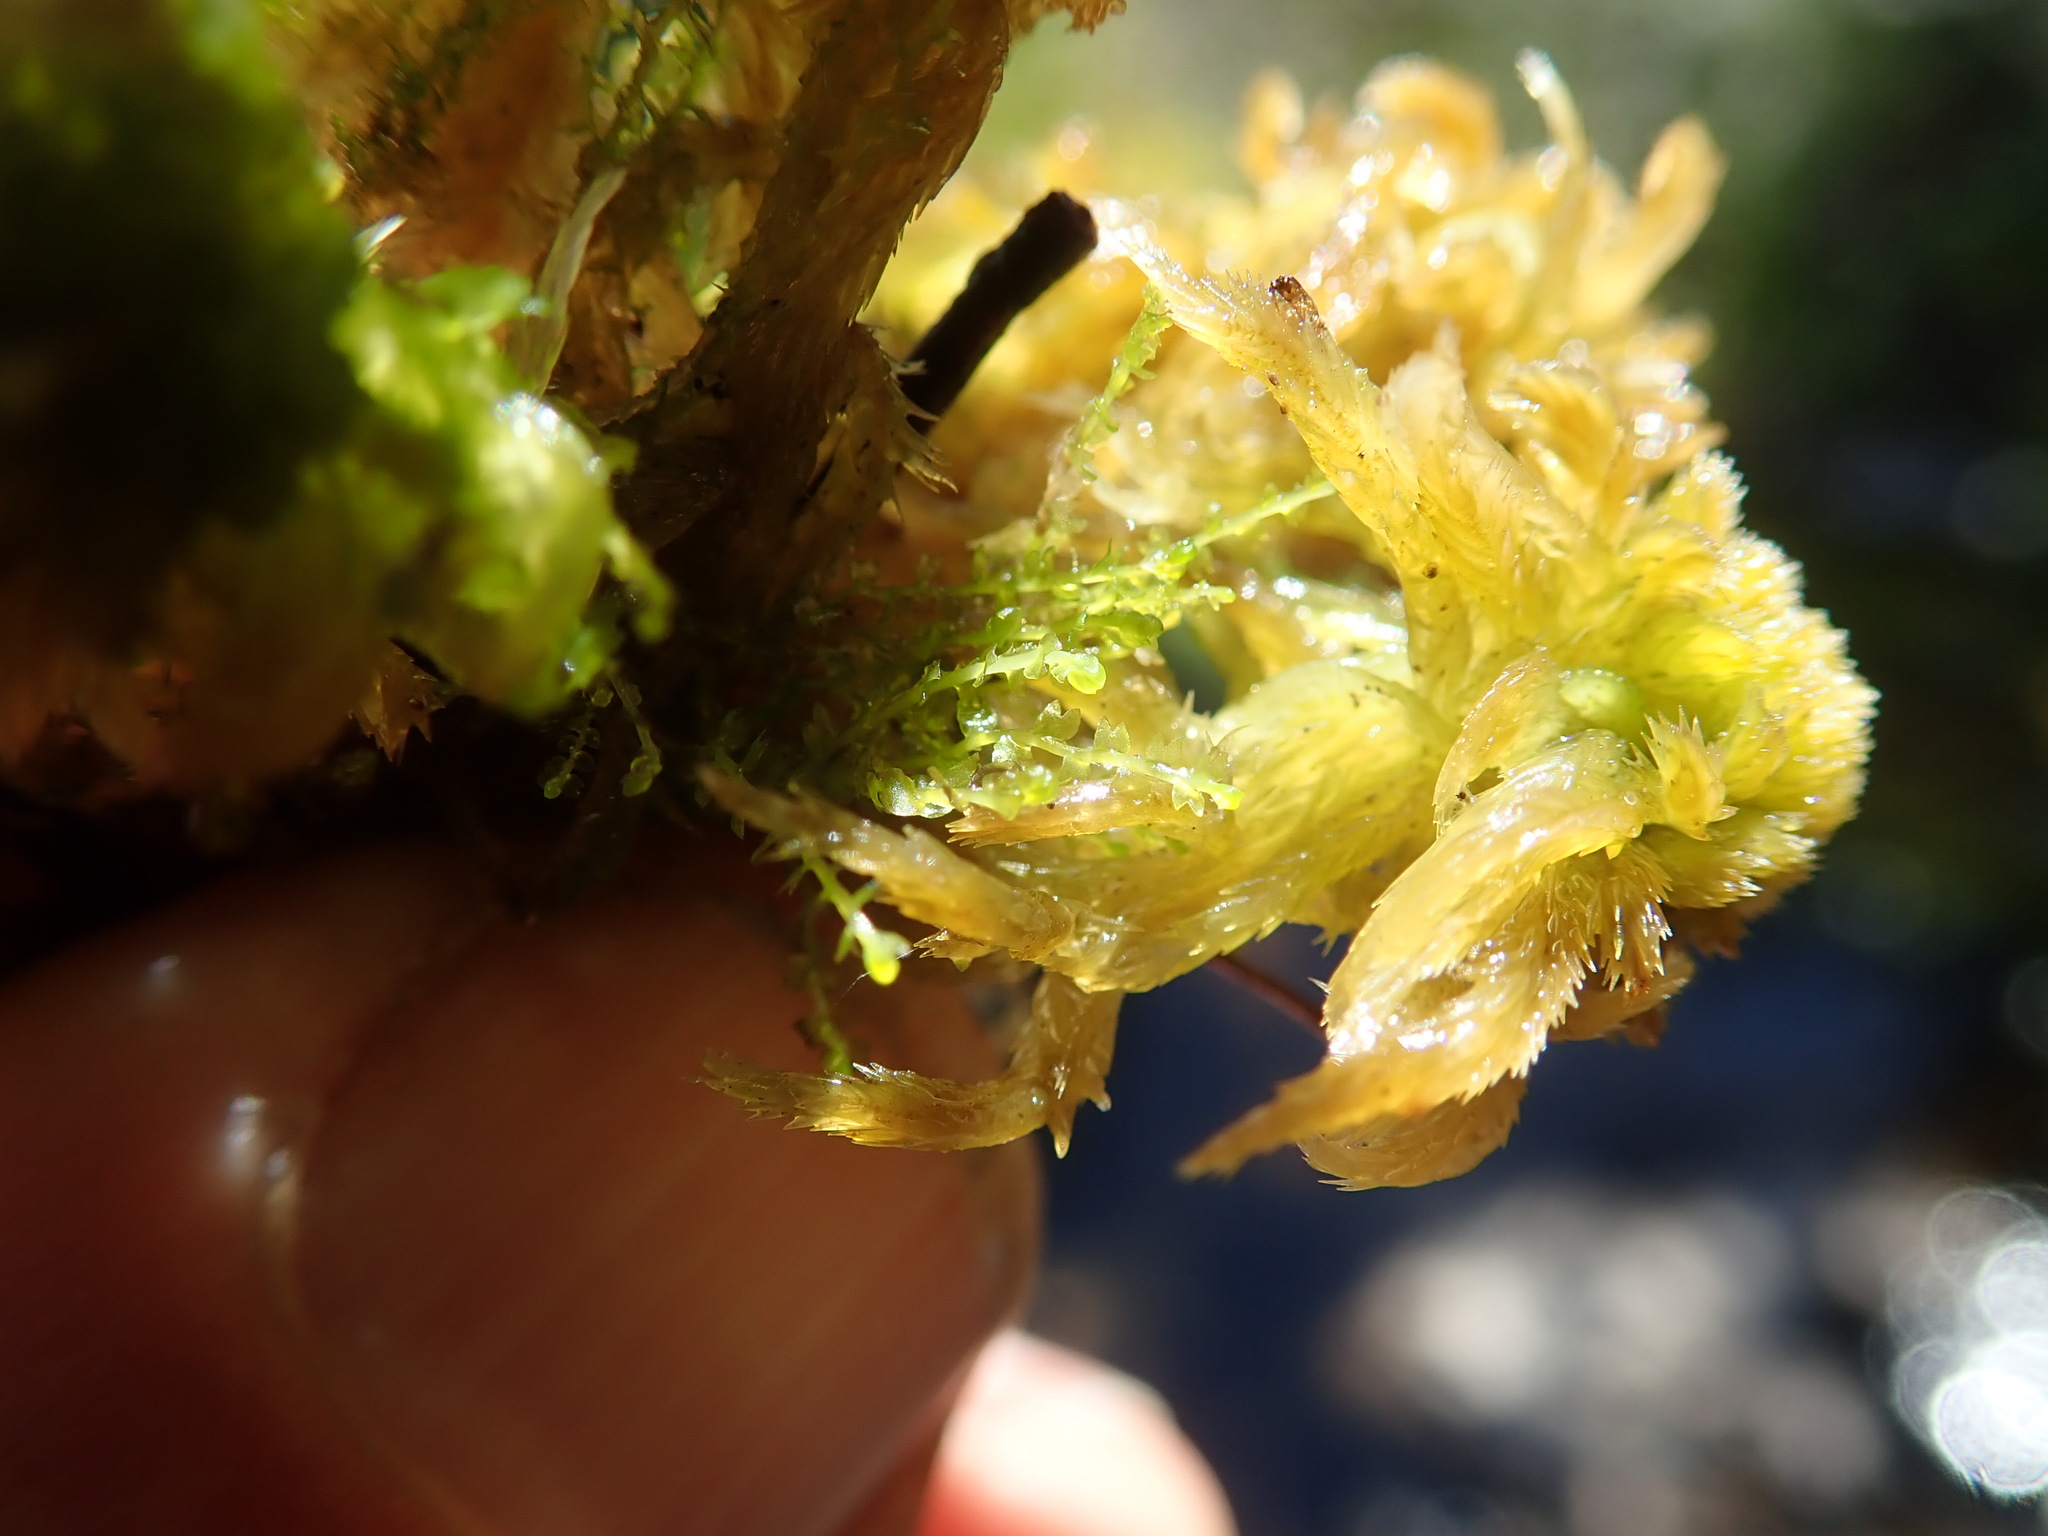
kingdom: Plantae
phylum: Bryophyta
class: Sphagnopsida
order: Sphagnales
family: Sphagnaceae
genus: Sphagnum
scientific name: Sphagnum mendocinum
